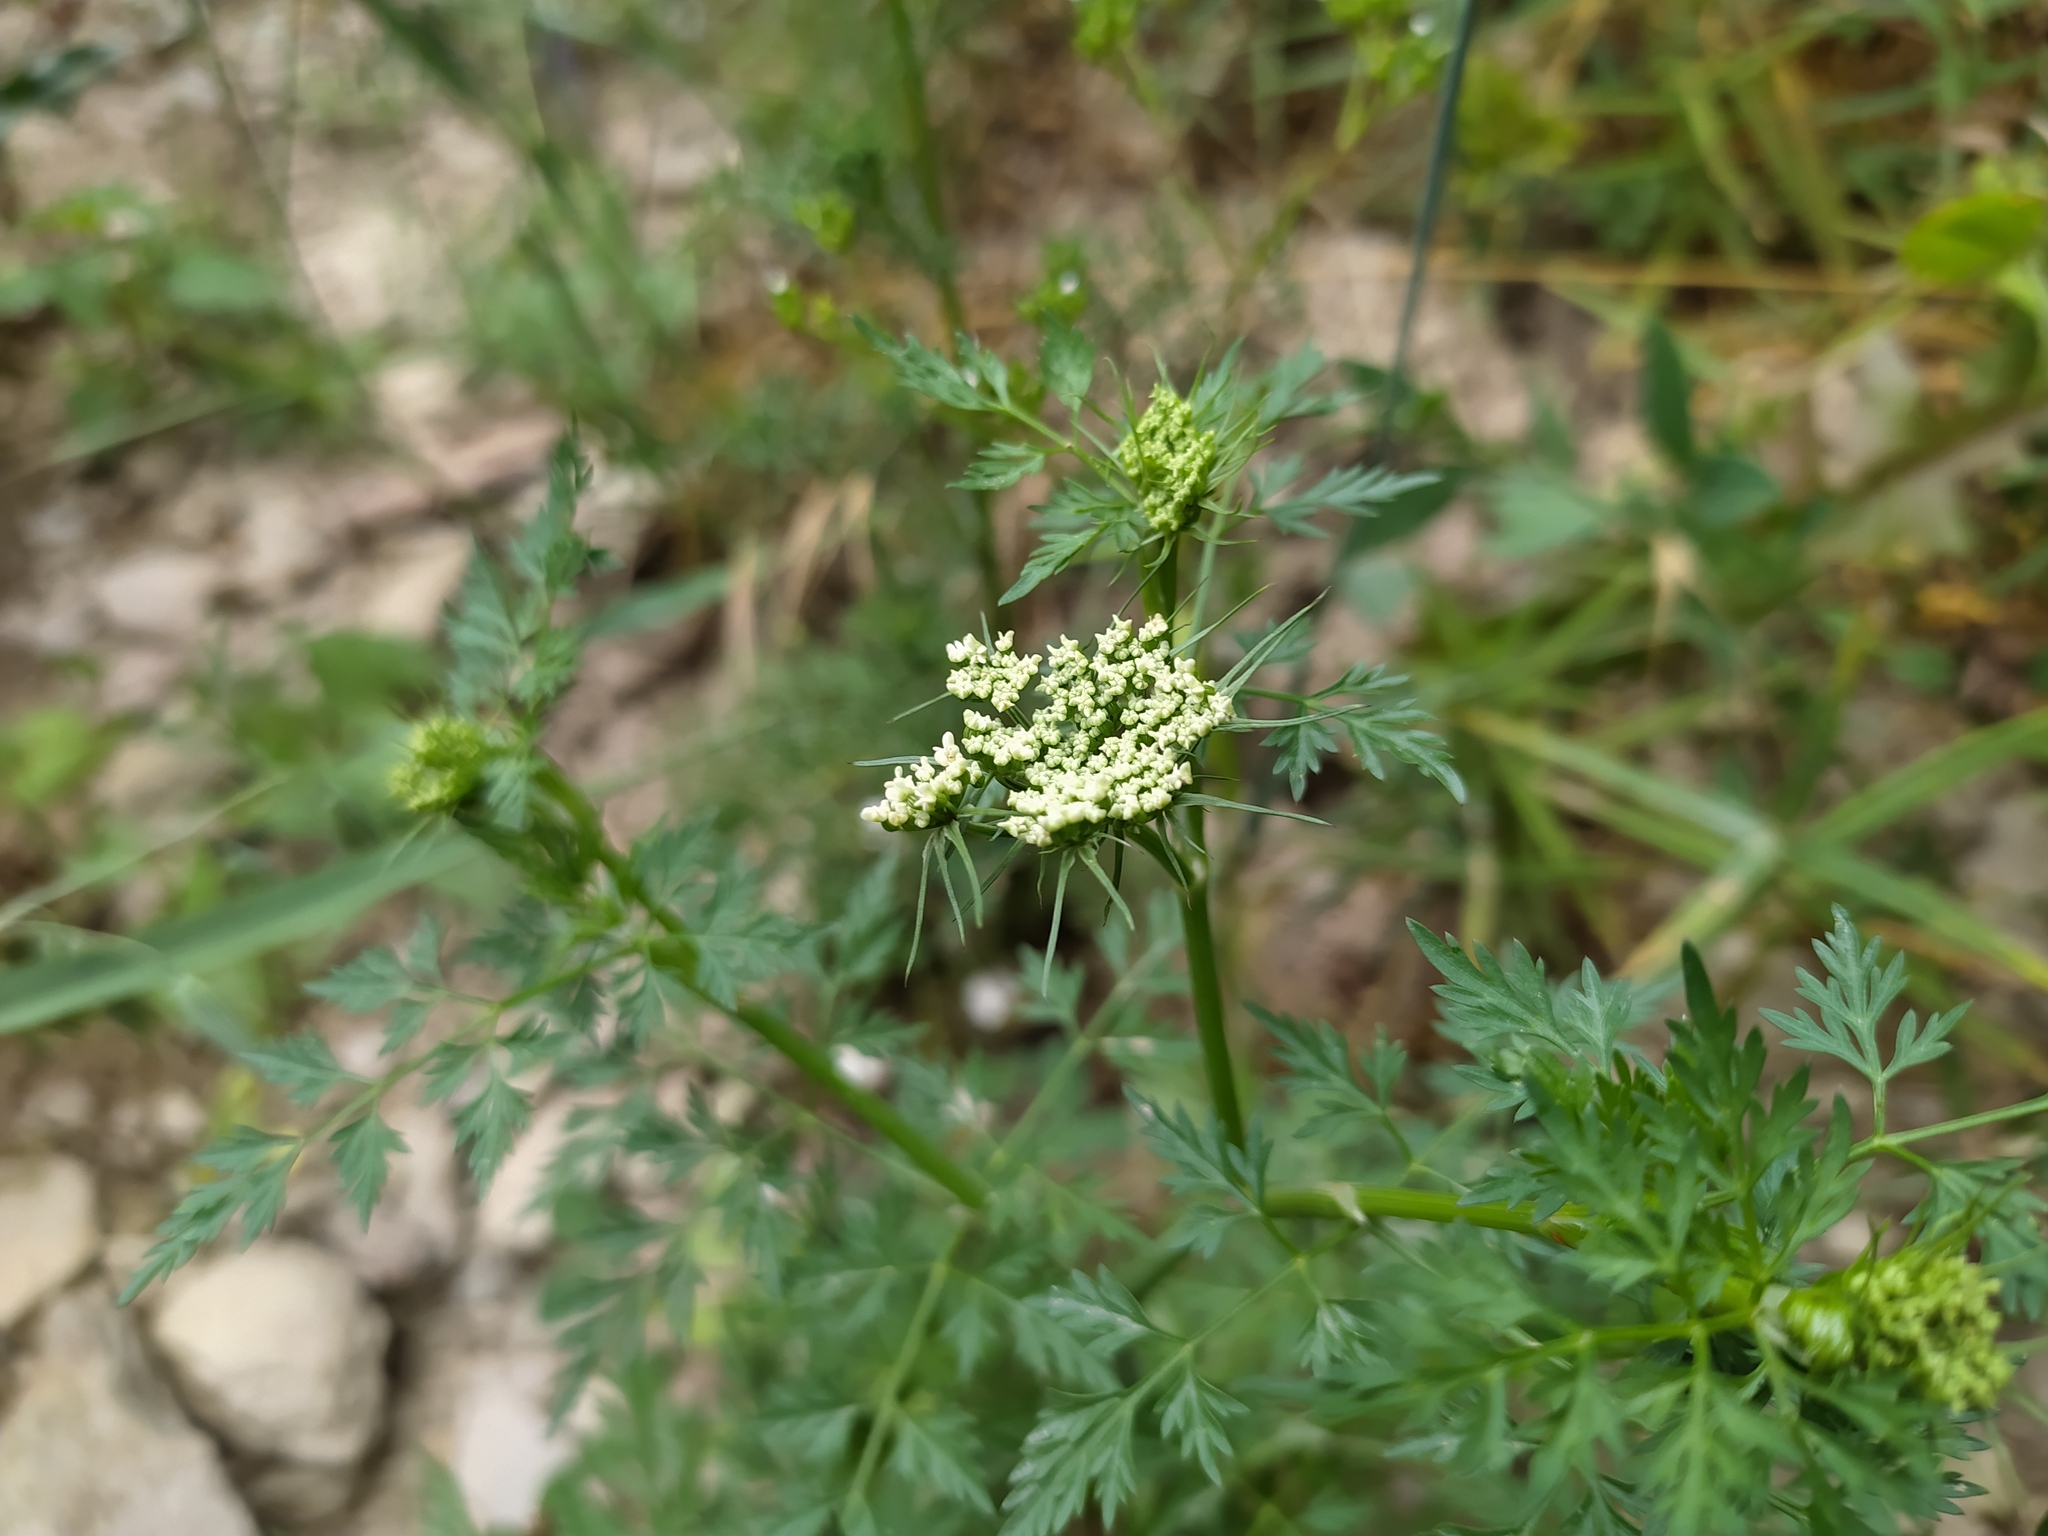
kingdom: Plantae
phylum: Tracheophyta
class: Magnoliopsida
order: Apiales
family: Apiaceae
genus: Aethusa
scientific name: Aethusa cynapium
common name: Fool's parsley
